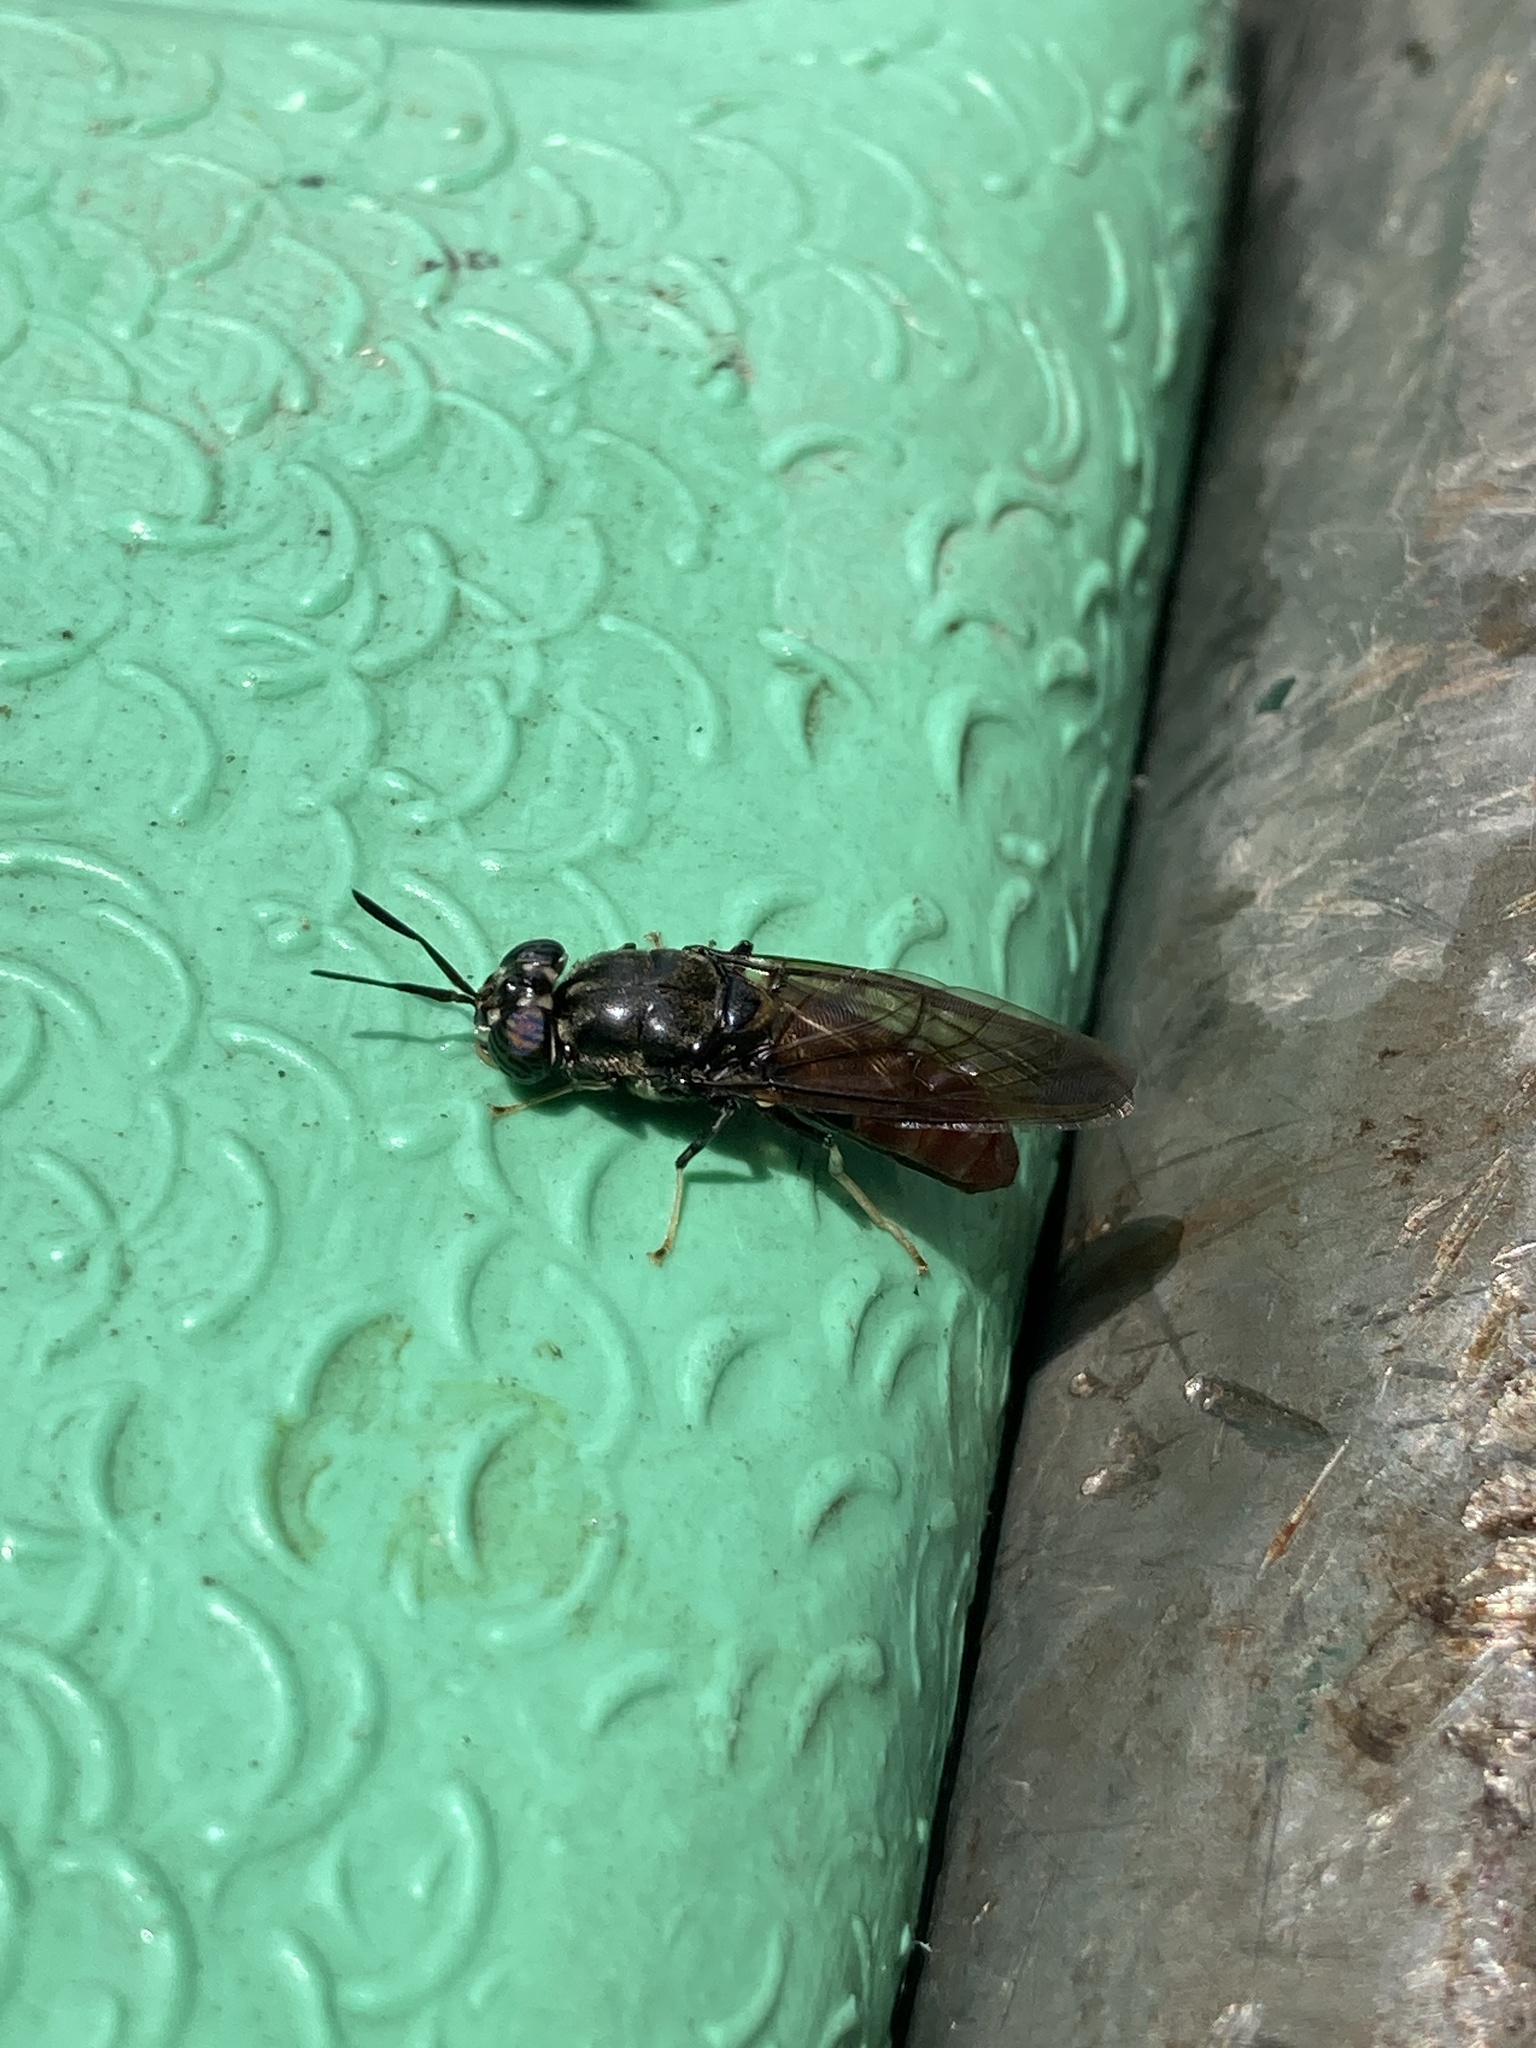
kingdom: Animalia
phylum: Arthropoda
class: Insecta
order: Diptera
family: Stratiomyidae
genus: Hermetia
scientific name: Hermetia illucens
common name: Black soldier fly
